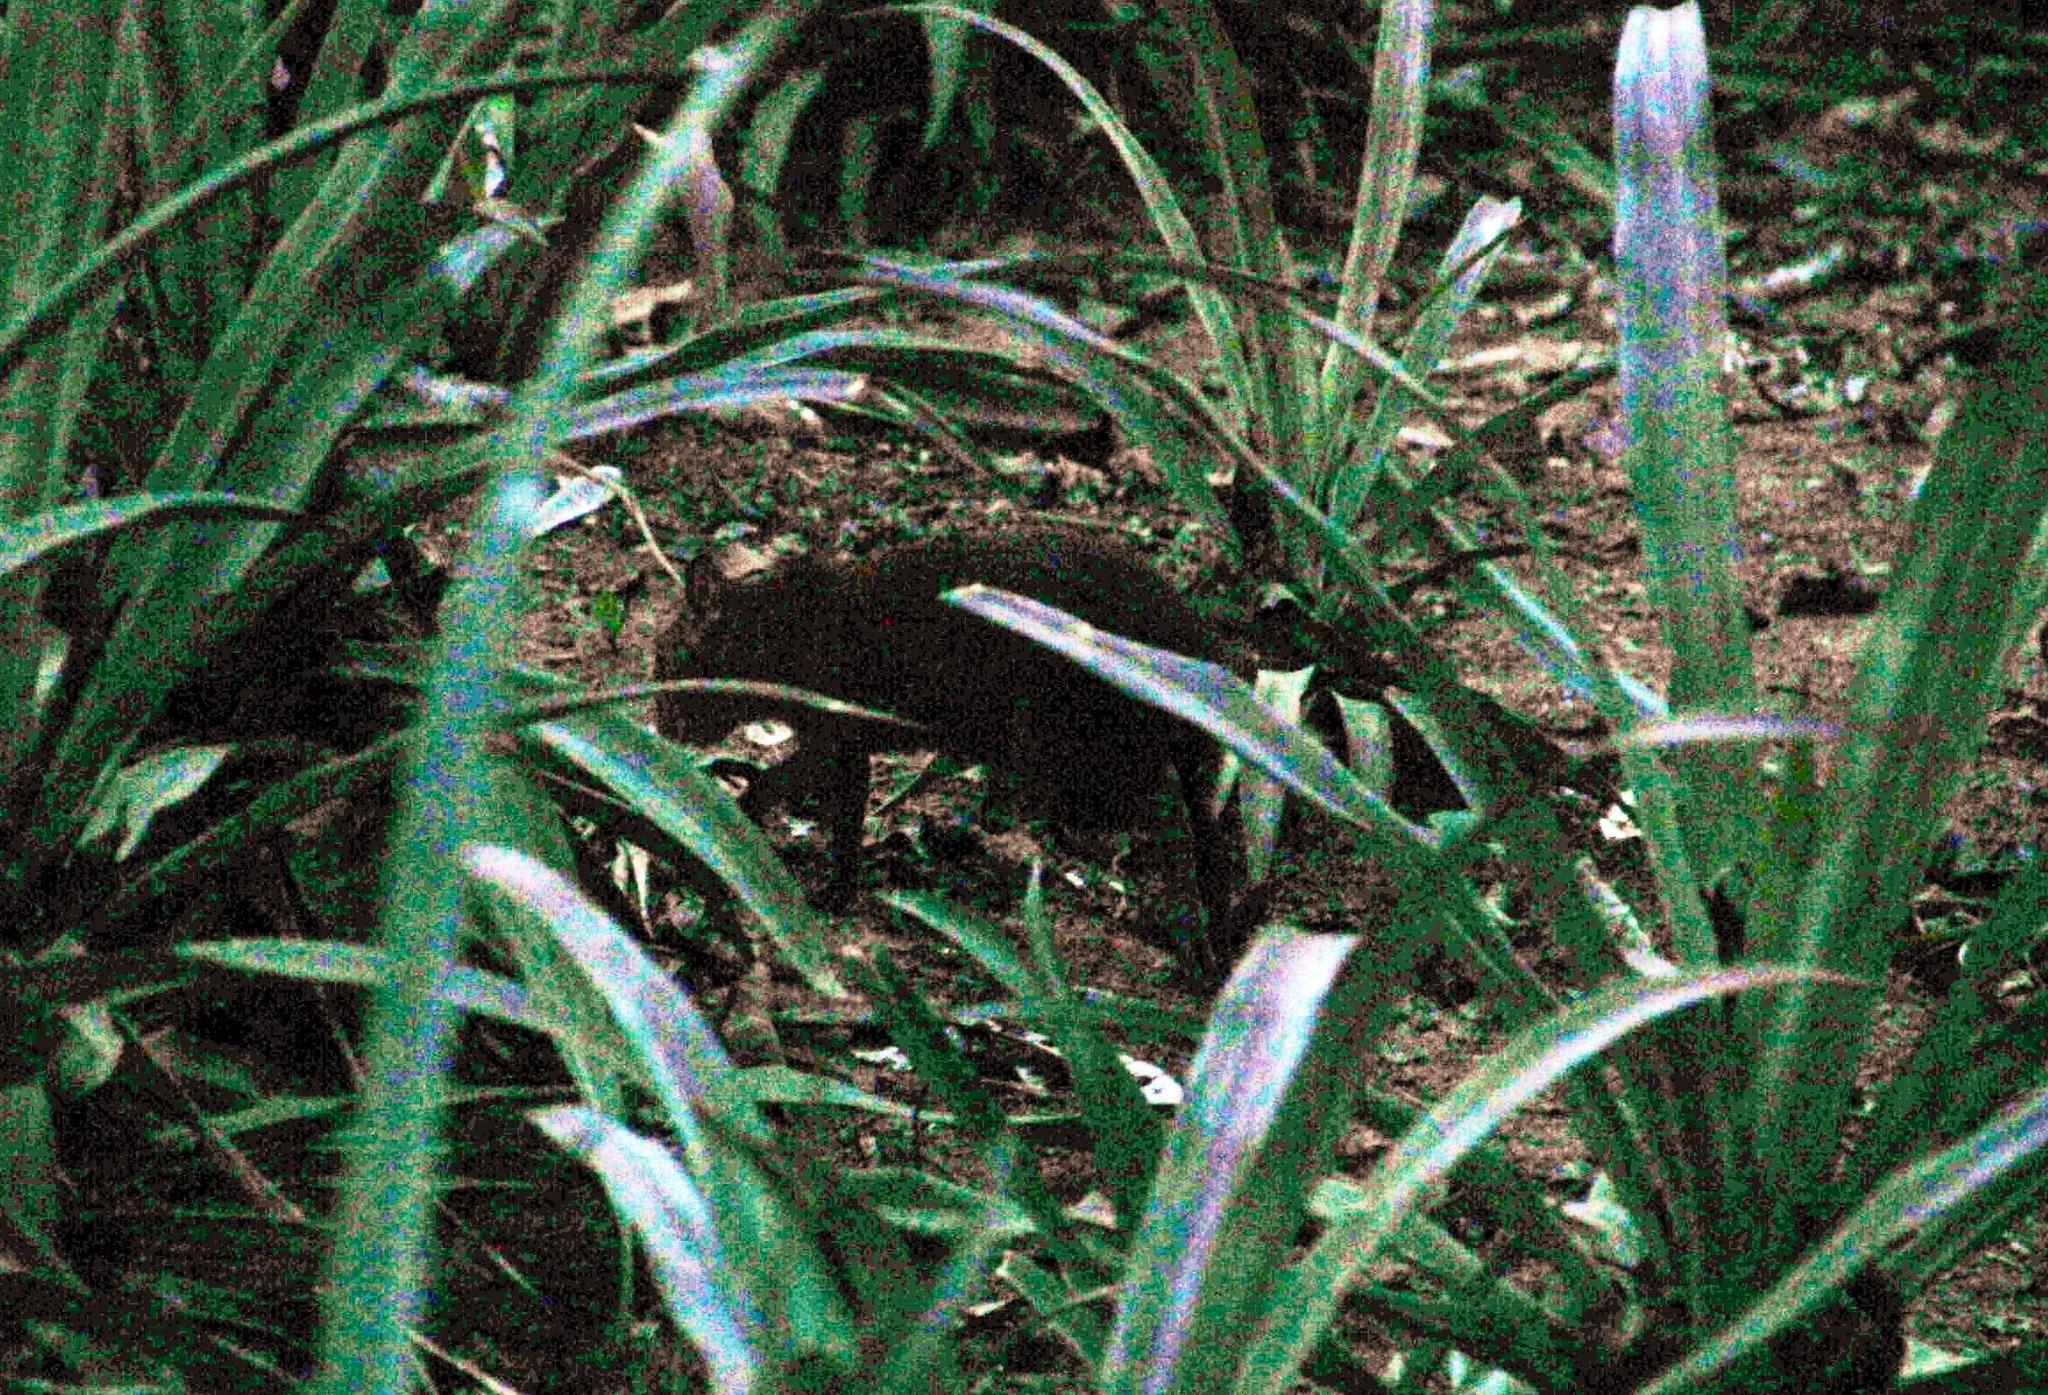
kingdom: Animalia
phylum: Chordata
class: Mammalia
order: Rodentia
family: Dasyproctidae
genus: Dasyprocta
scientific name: Dasyprocta variegata
